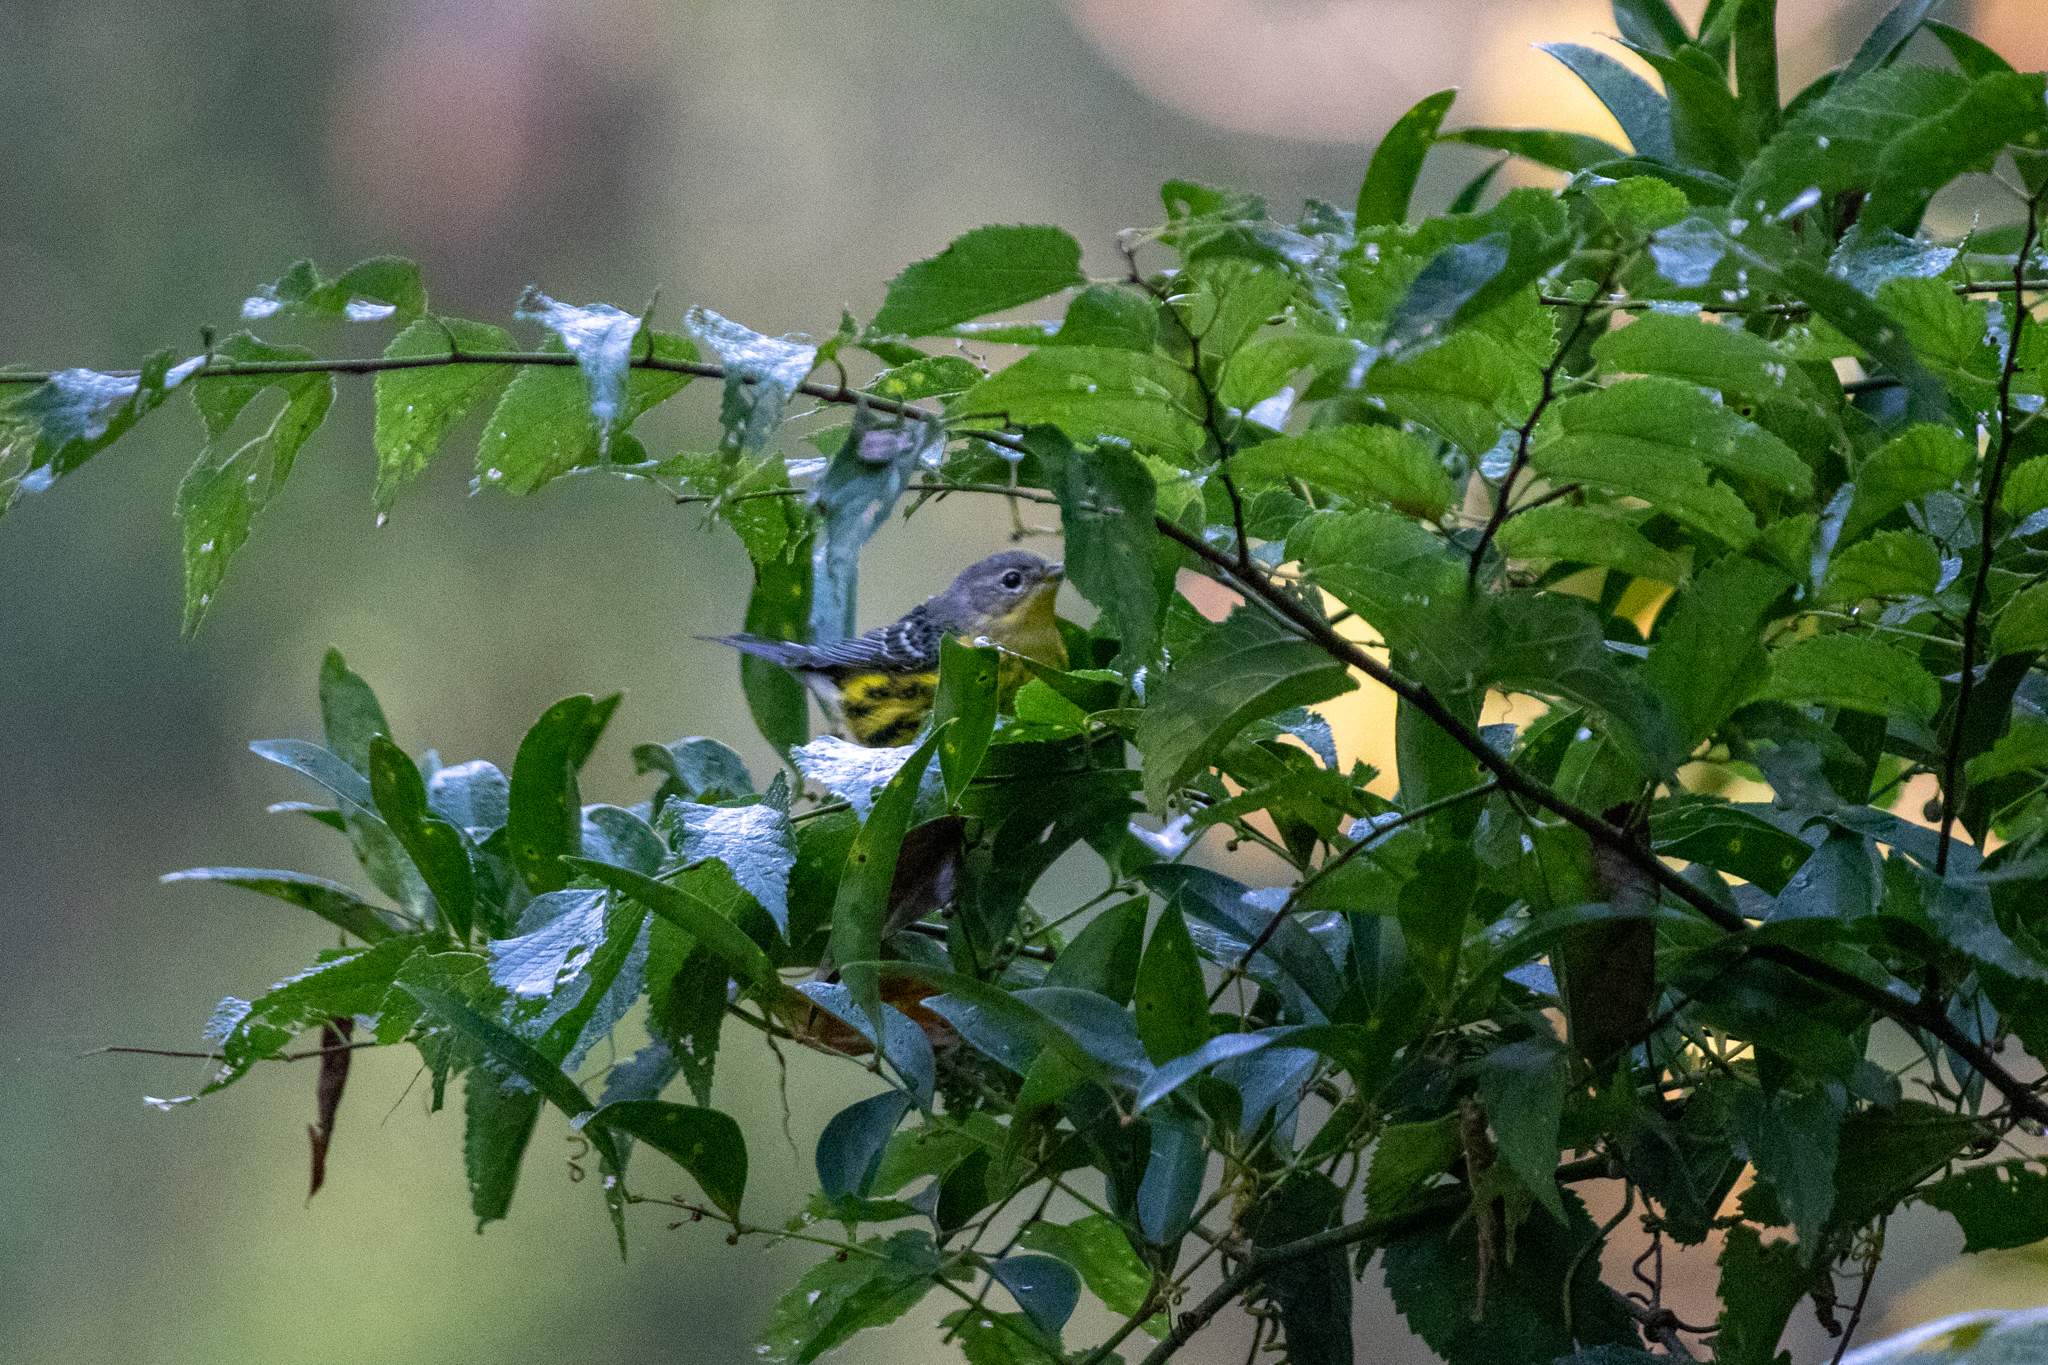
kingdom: Animalia
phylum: Chordata
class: Aves
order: Passeriformes
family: Parulidae
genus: Setophaga
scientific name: Setophaga magnolia
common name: Magnolia warbler
